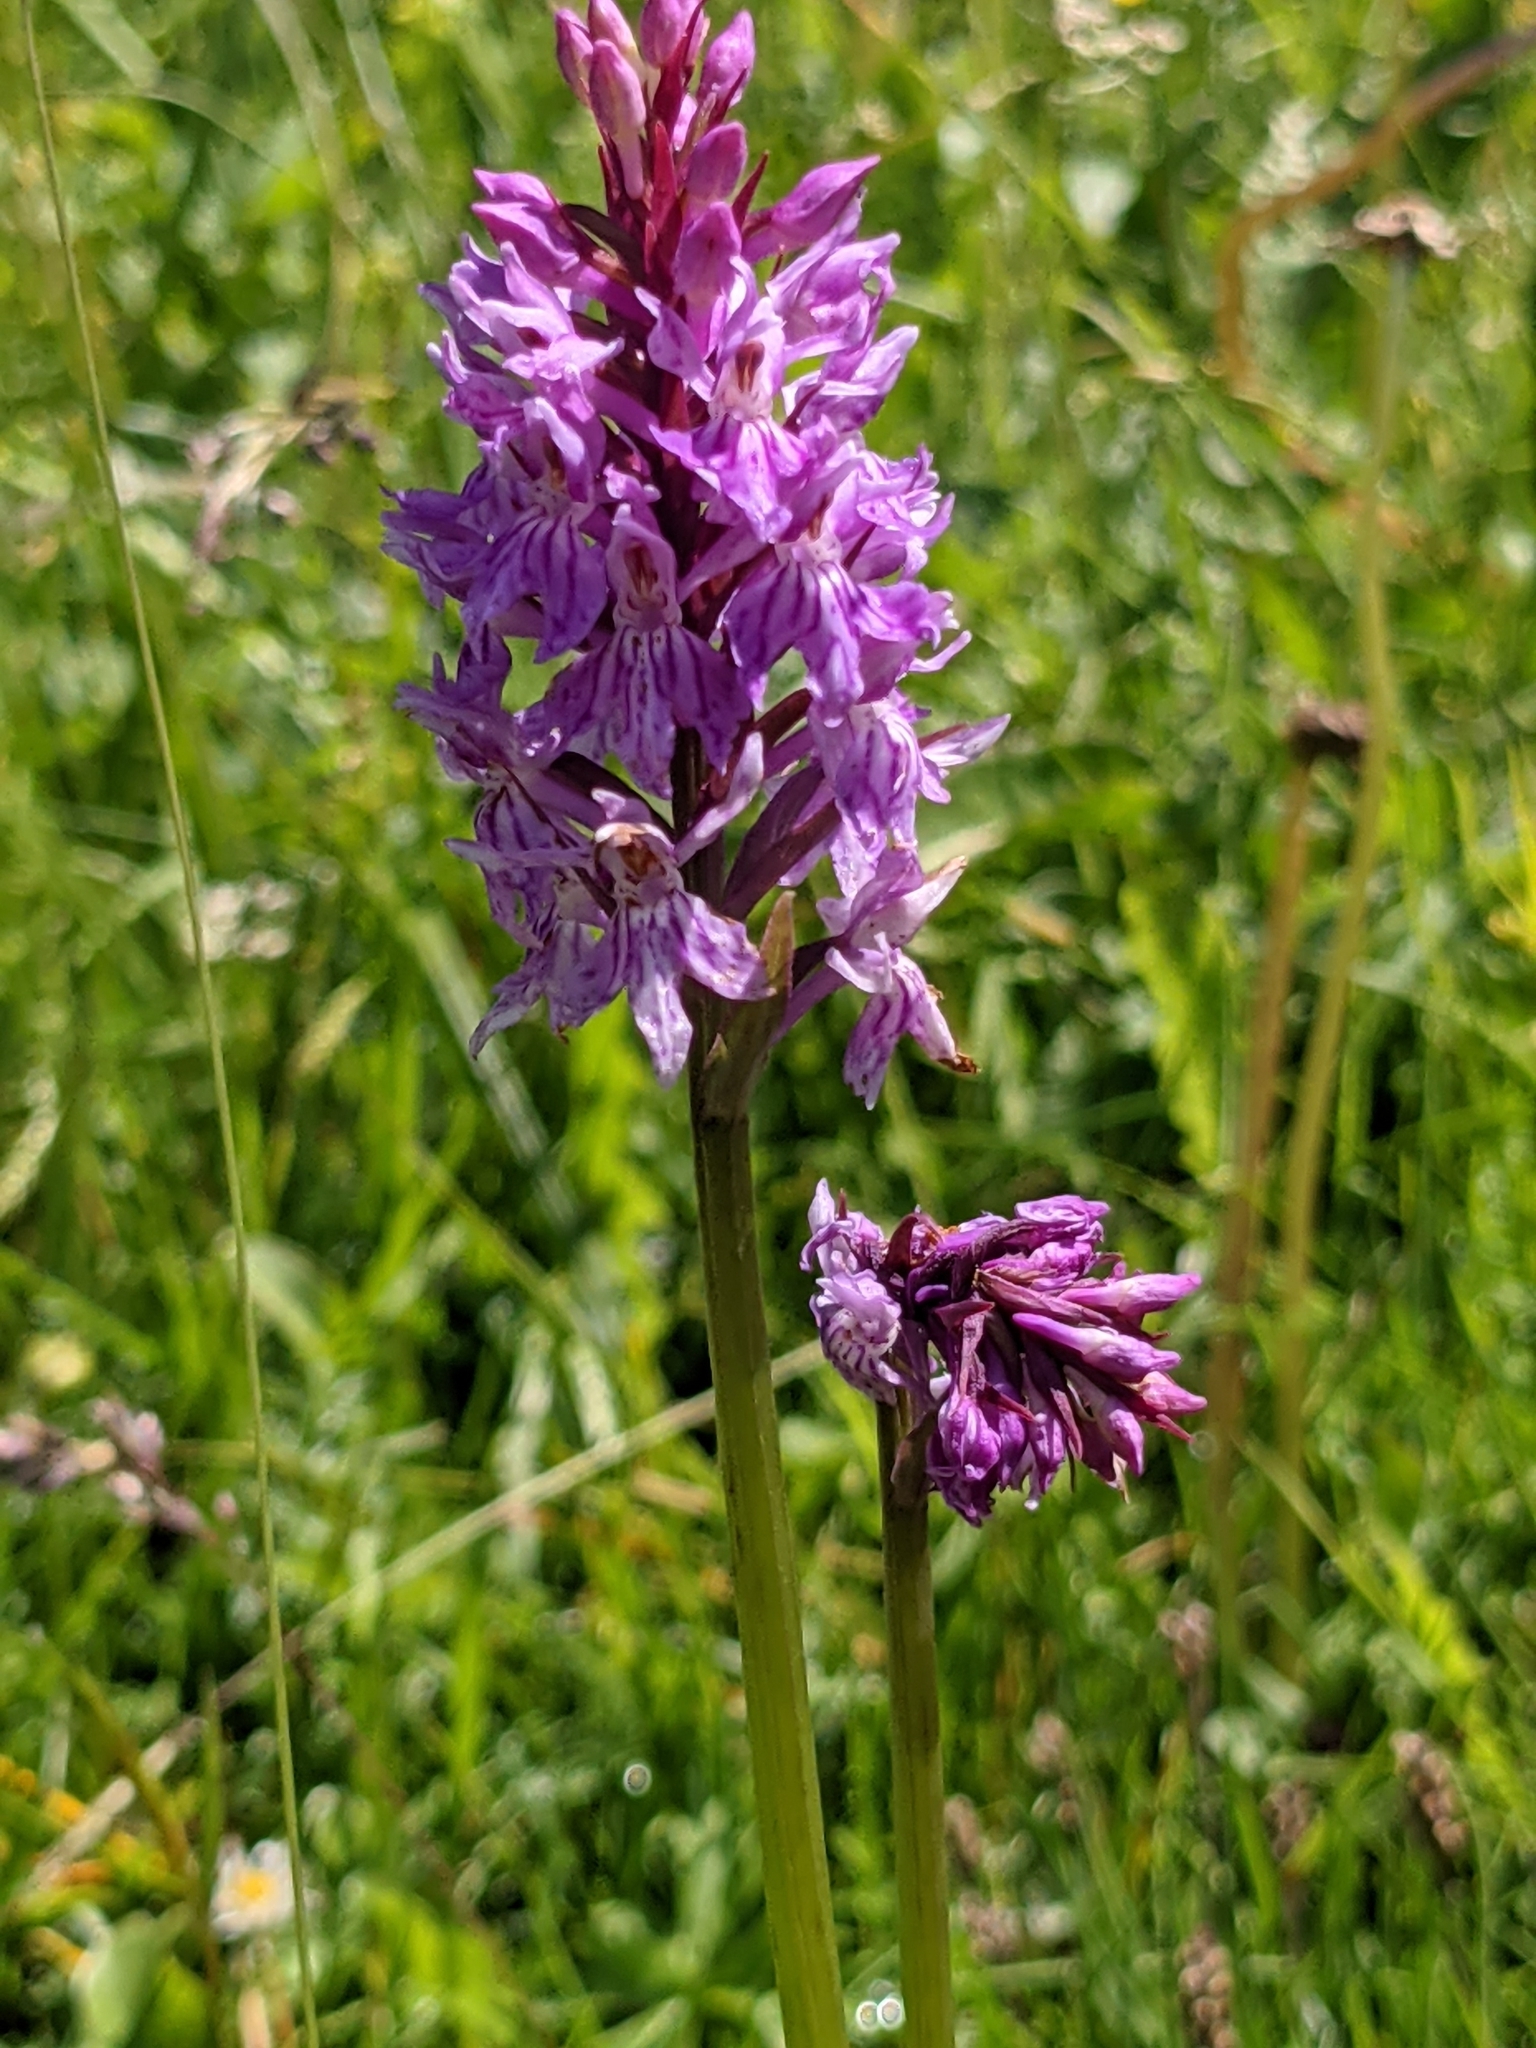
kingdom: Plantae
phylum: Tracheophyta
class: Liliopsida
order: Asparagales
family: Orchidaceae
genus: Dactylorhiza
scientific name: Dactylorhiza maculata
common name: Heath spotted-orchid
